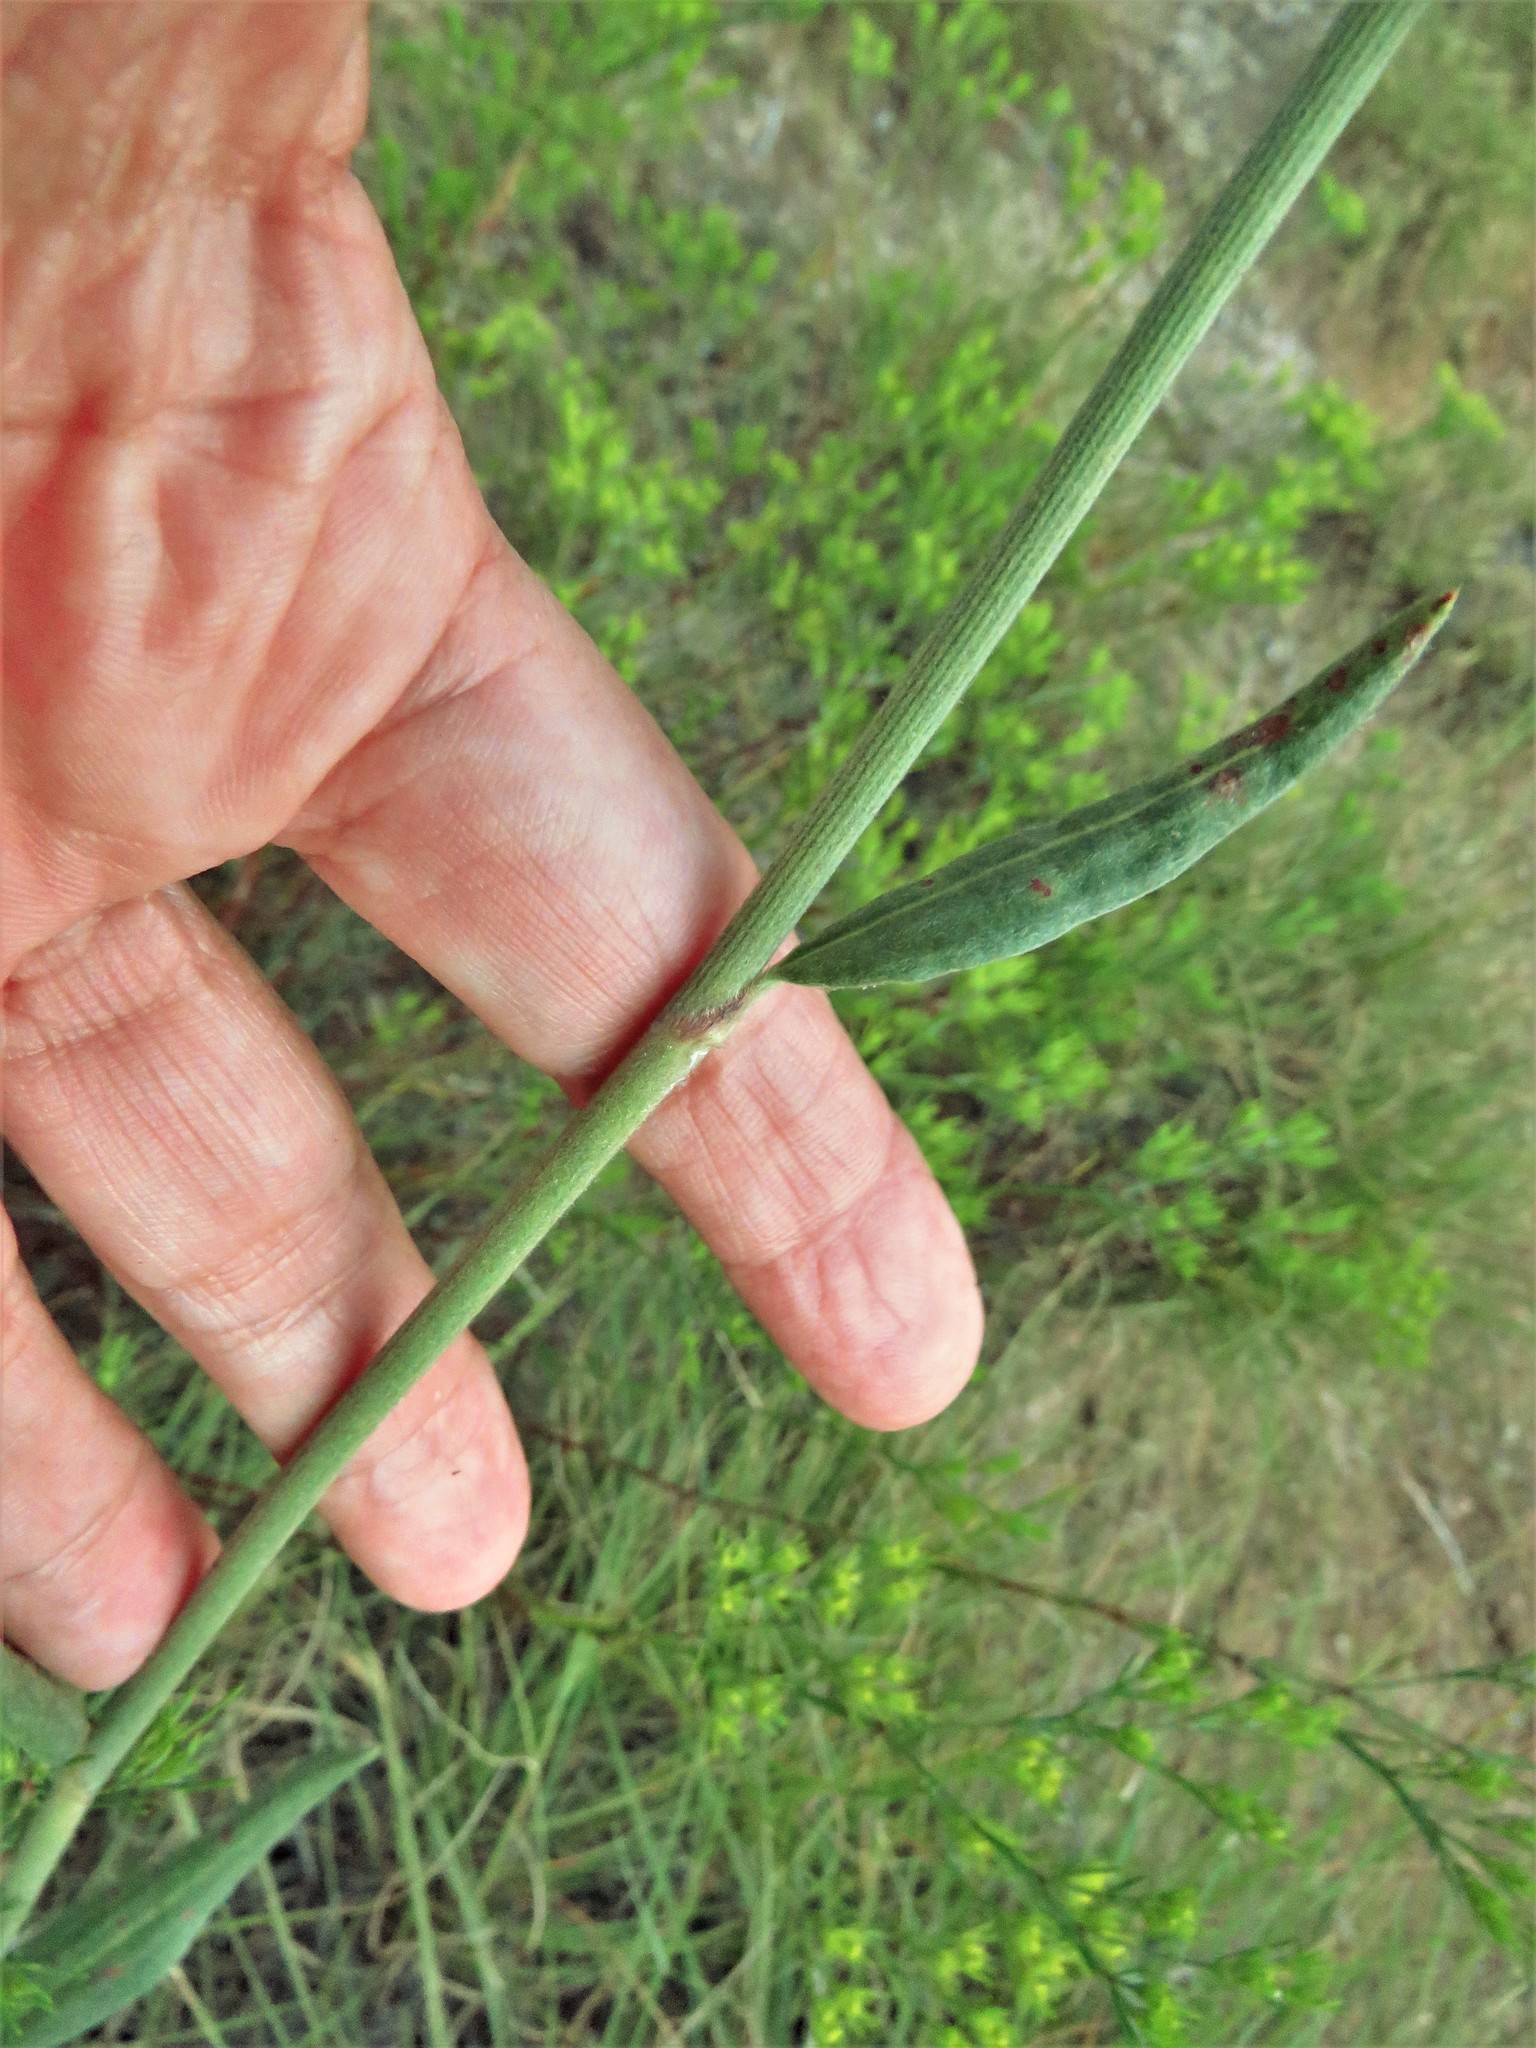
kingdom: Plantae
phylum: Tracheophyta
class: Magnoliopsida
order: Caryophyllales
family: Polygonaceae
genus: Eriogonum
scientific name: Eriogonum longifolium
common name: Longleaf wild buckwheat
